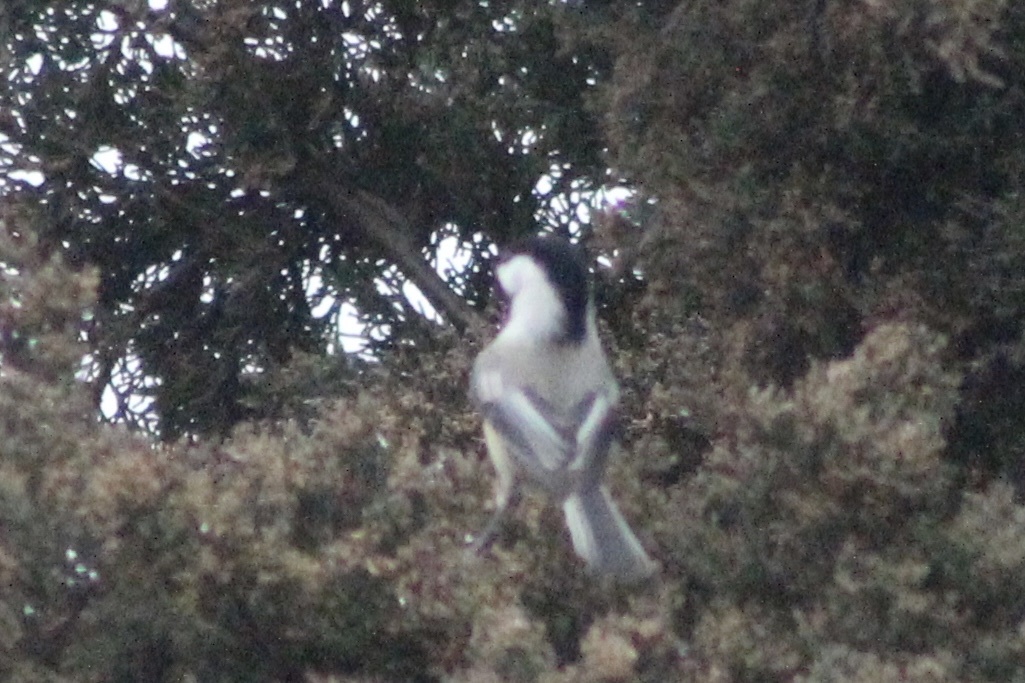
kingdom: Animalia
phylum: Chordata
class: Aves
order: Passeriformes
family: Paridae
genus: Poecile
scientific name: Poecile atricapillus
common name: Black-capped chickadee
